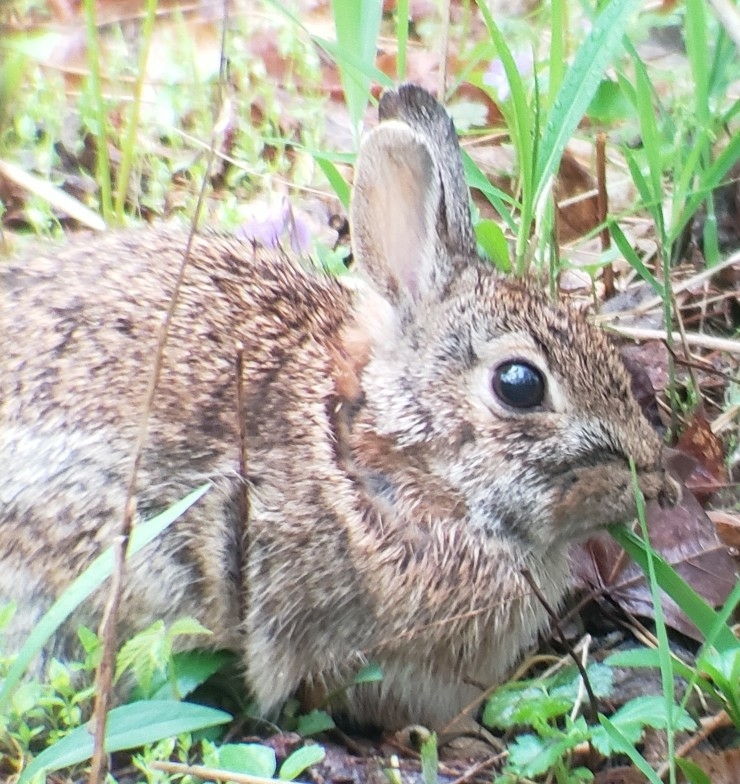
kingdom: Animalia
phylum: Chordata
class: Mammalia
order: Lagomorpha
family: Leporidae
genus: Sylvilagus
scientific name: Sylvilagus floridanus
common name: Eastern cottontail
